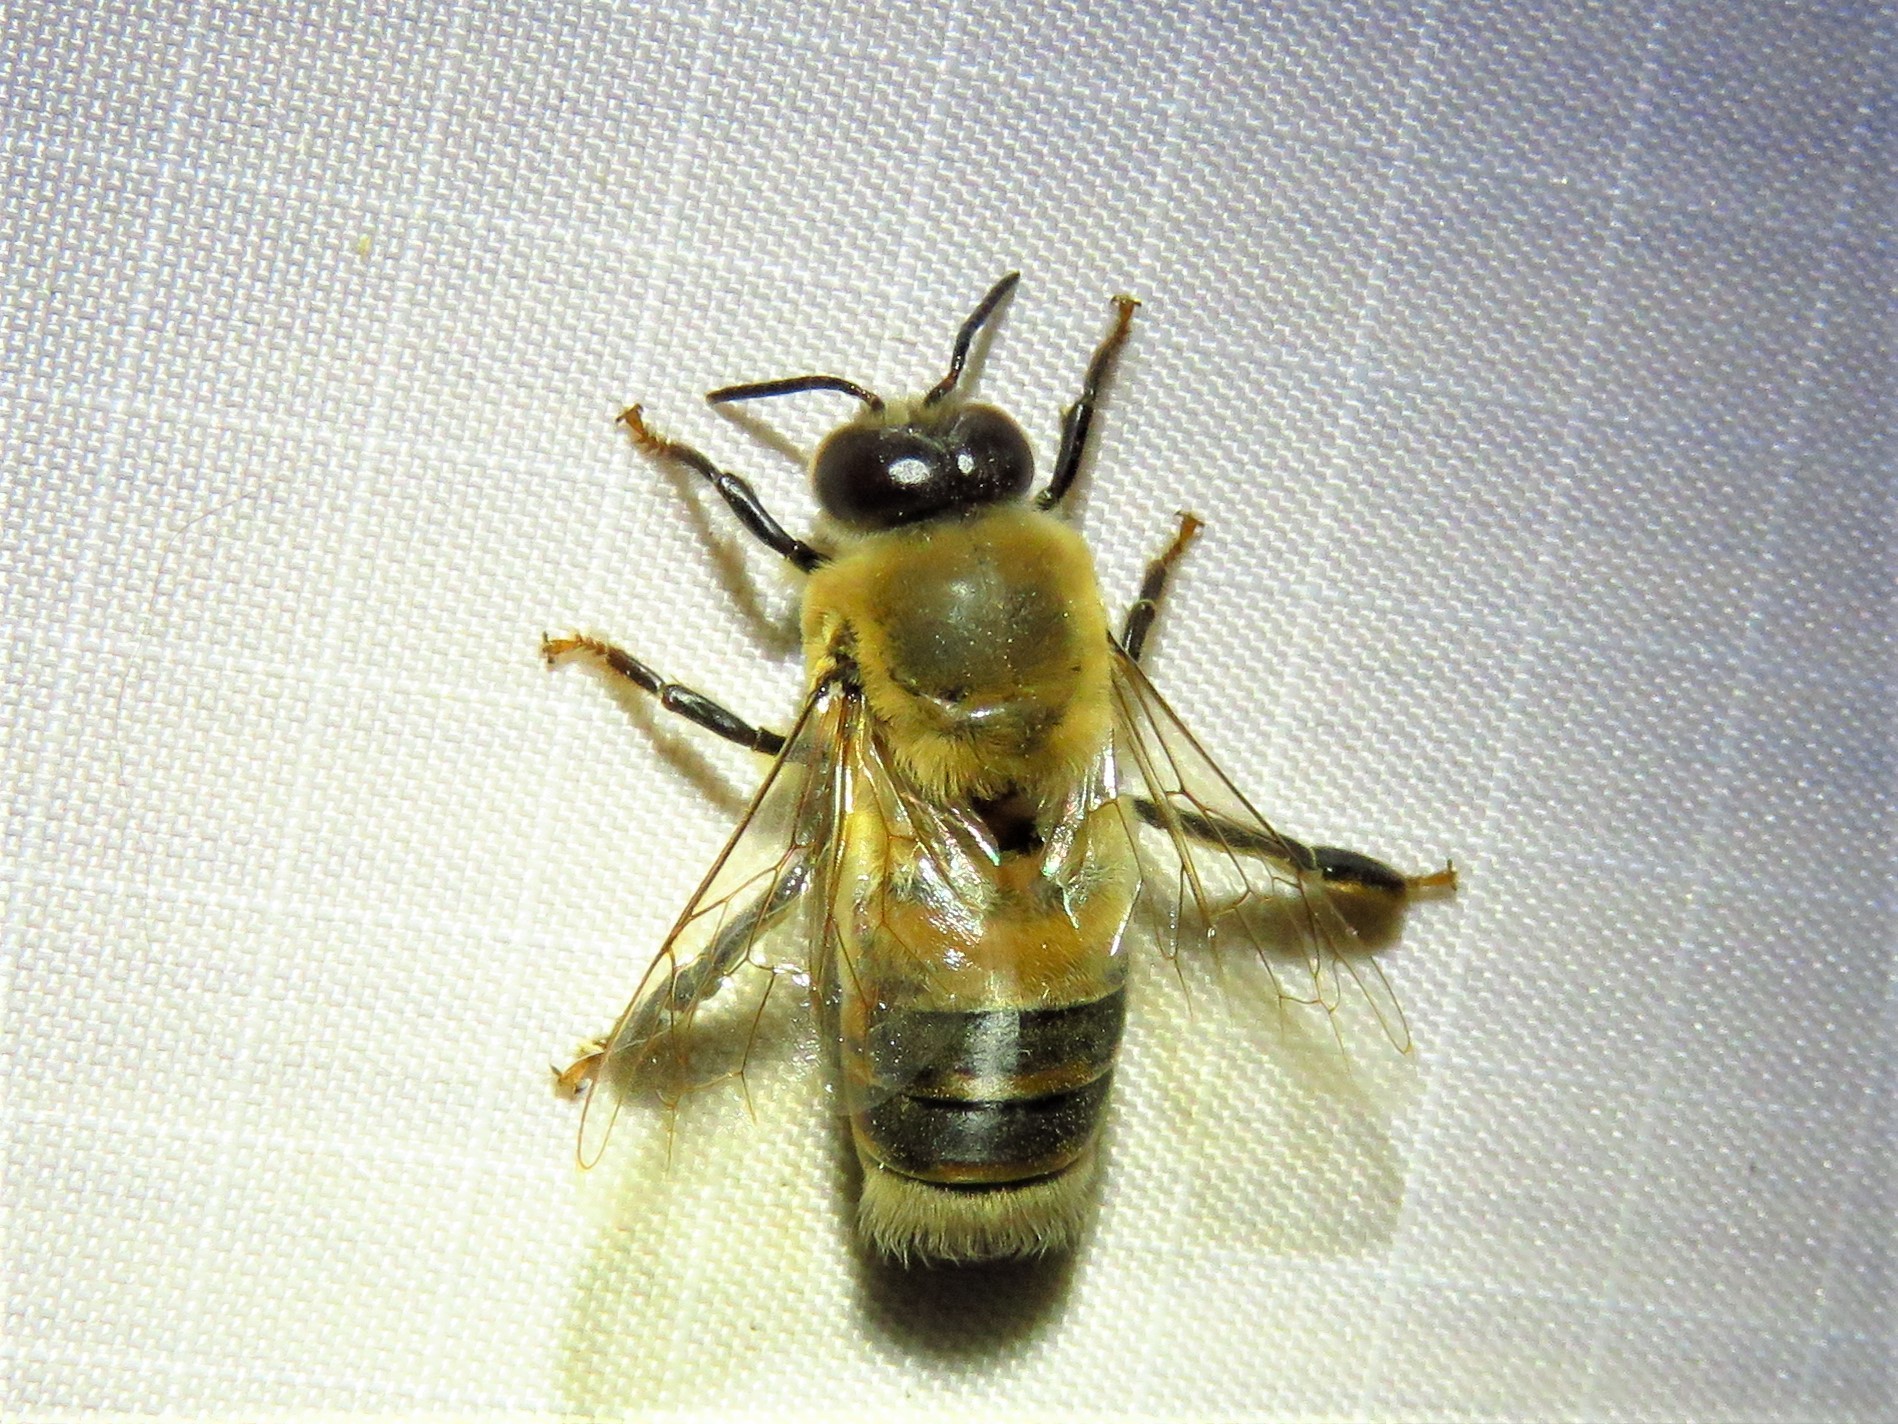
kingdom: Animalia
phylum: Arthropoda
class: Insecta
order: Hymenoptera
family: Apidae
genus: Apis
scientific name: Apis mellifera
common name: Honey bee
